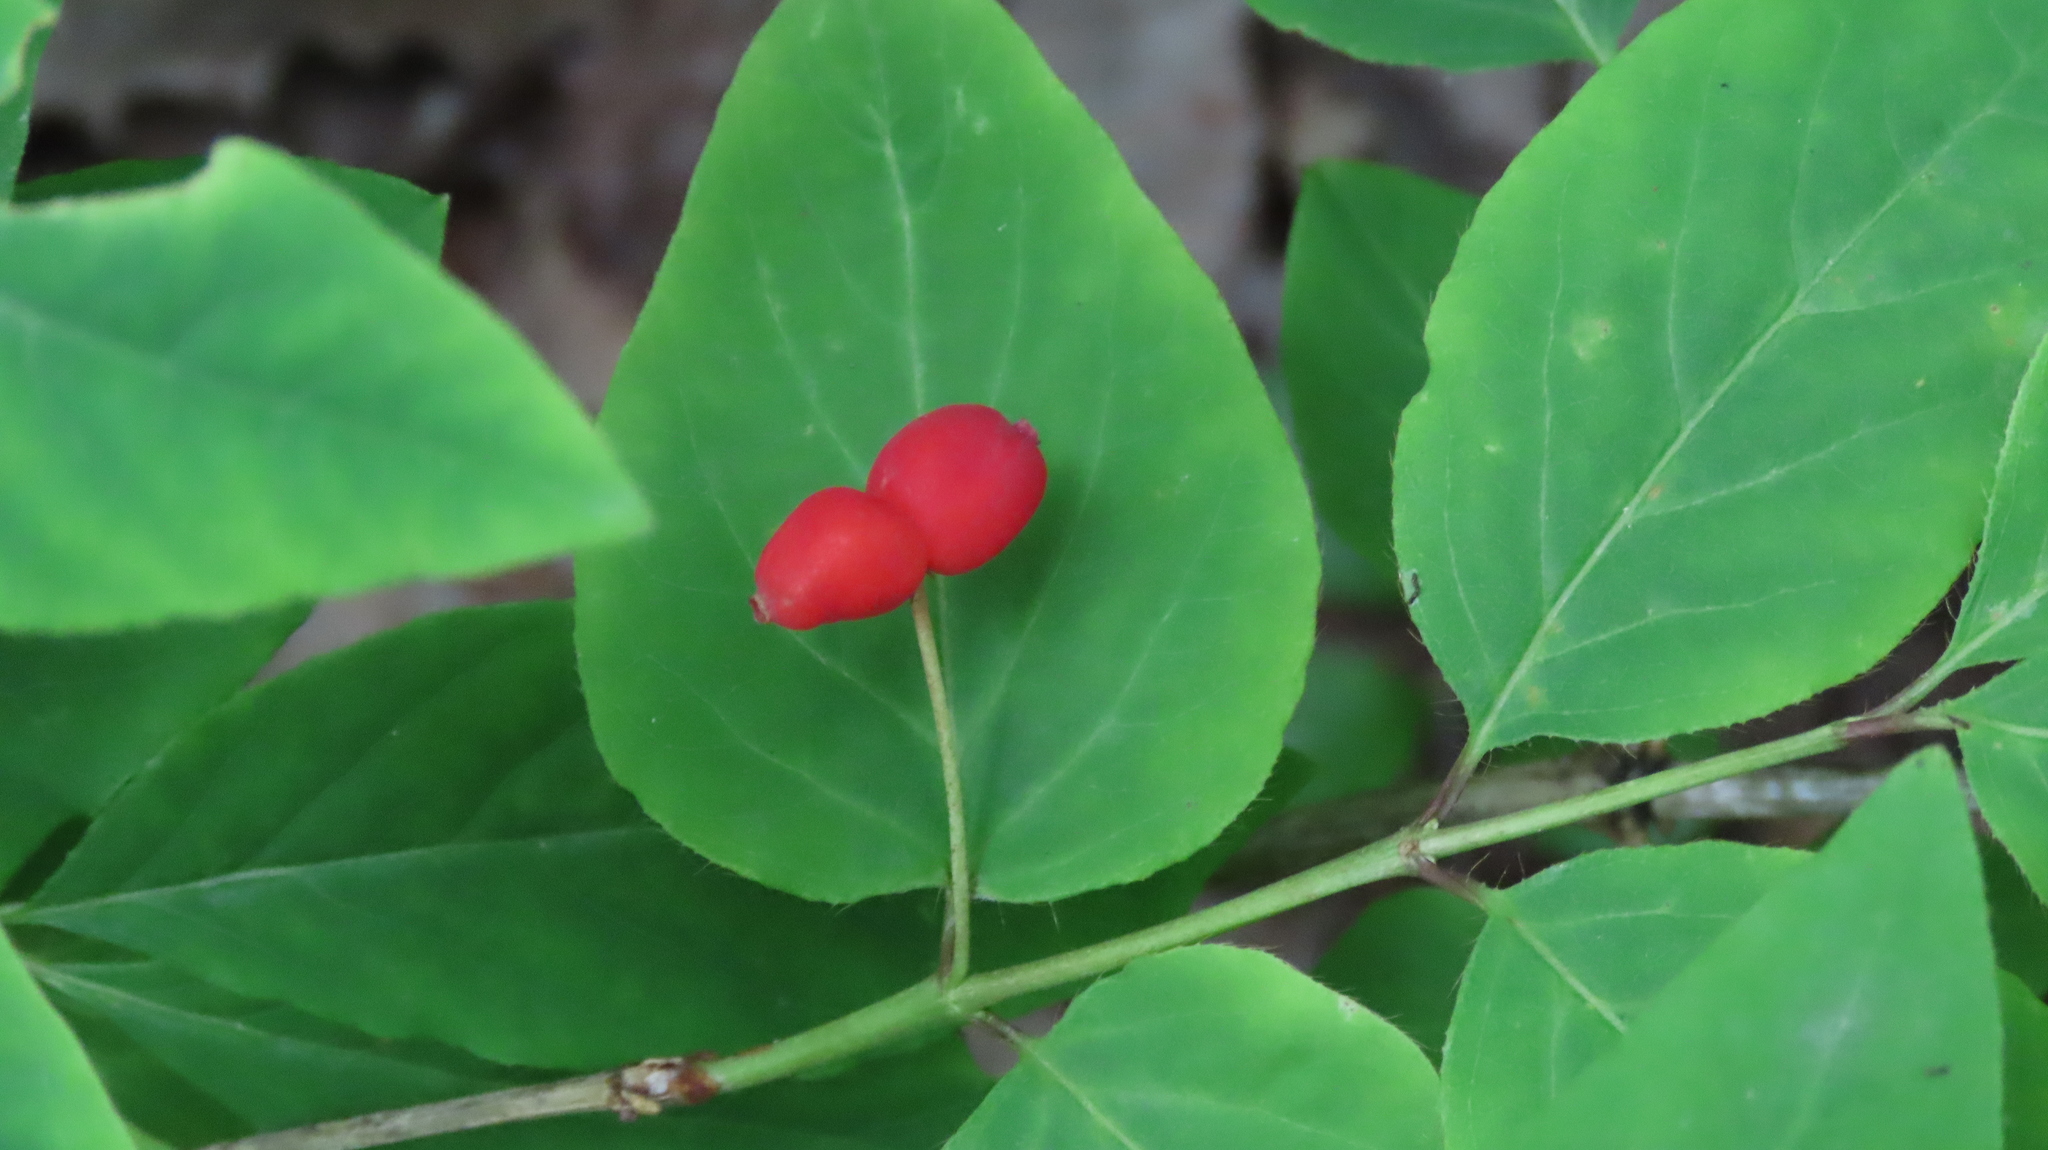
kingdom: Plantae
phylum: Tracheophyta
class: Magnoliopsida
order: Dipsacales
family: Caprifoliaceae
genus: Lonicera
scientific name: Lonicera canadensis
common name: American fly-honeysuckle
